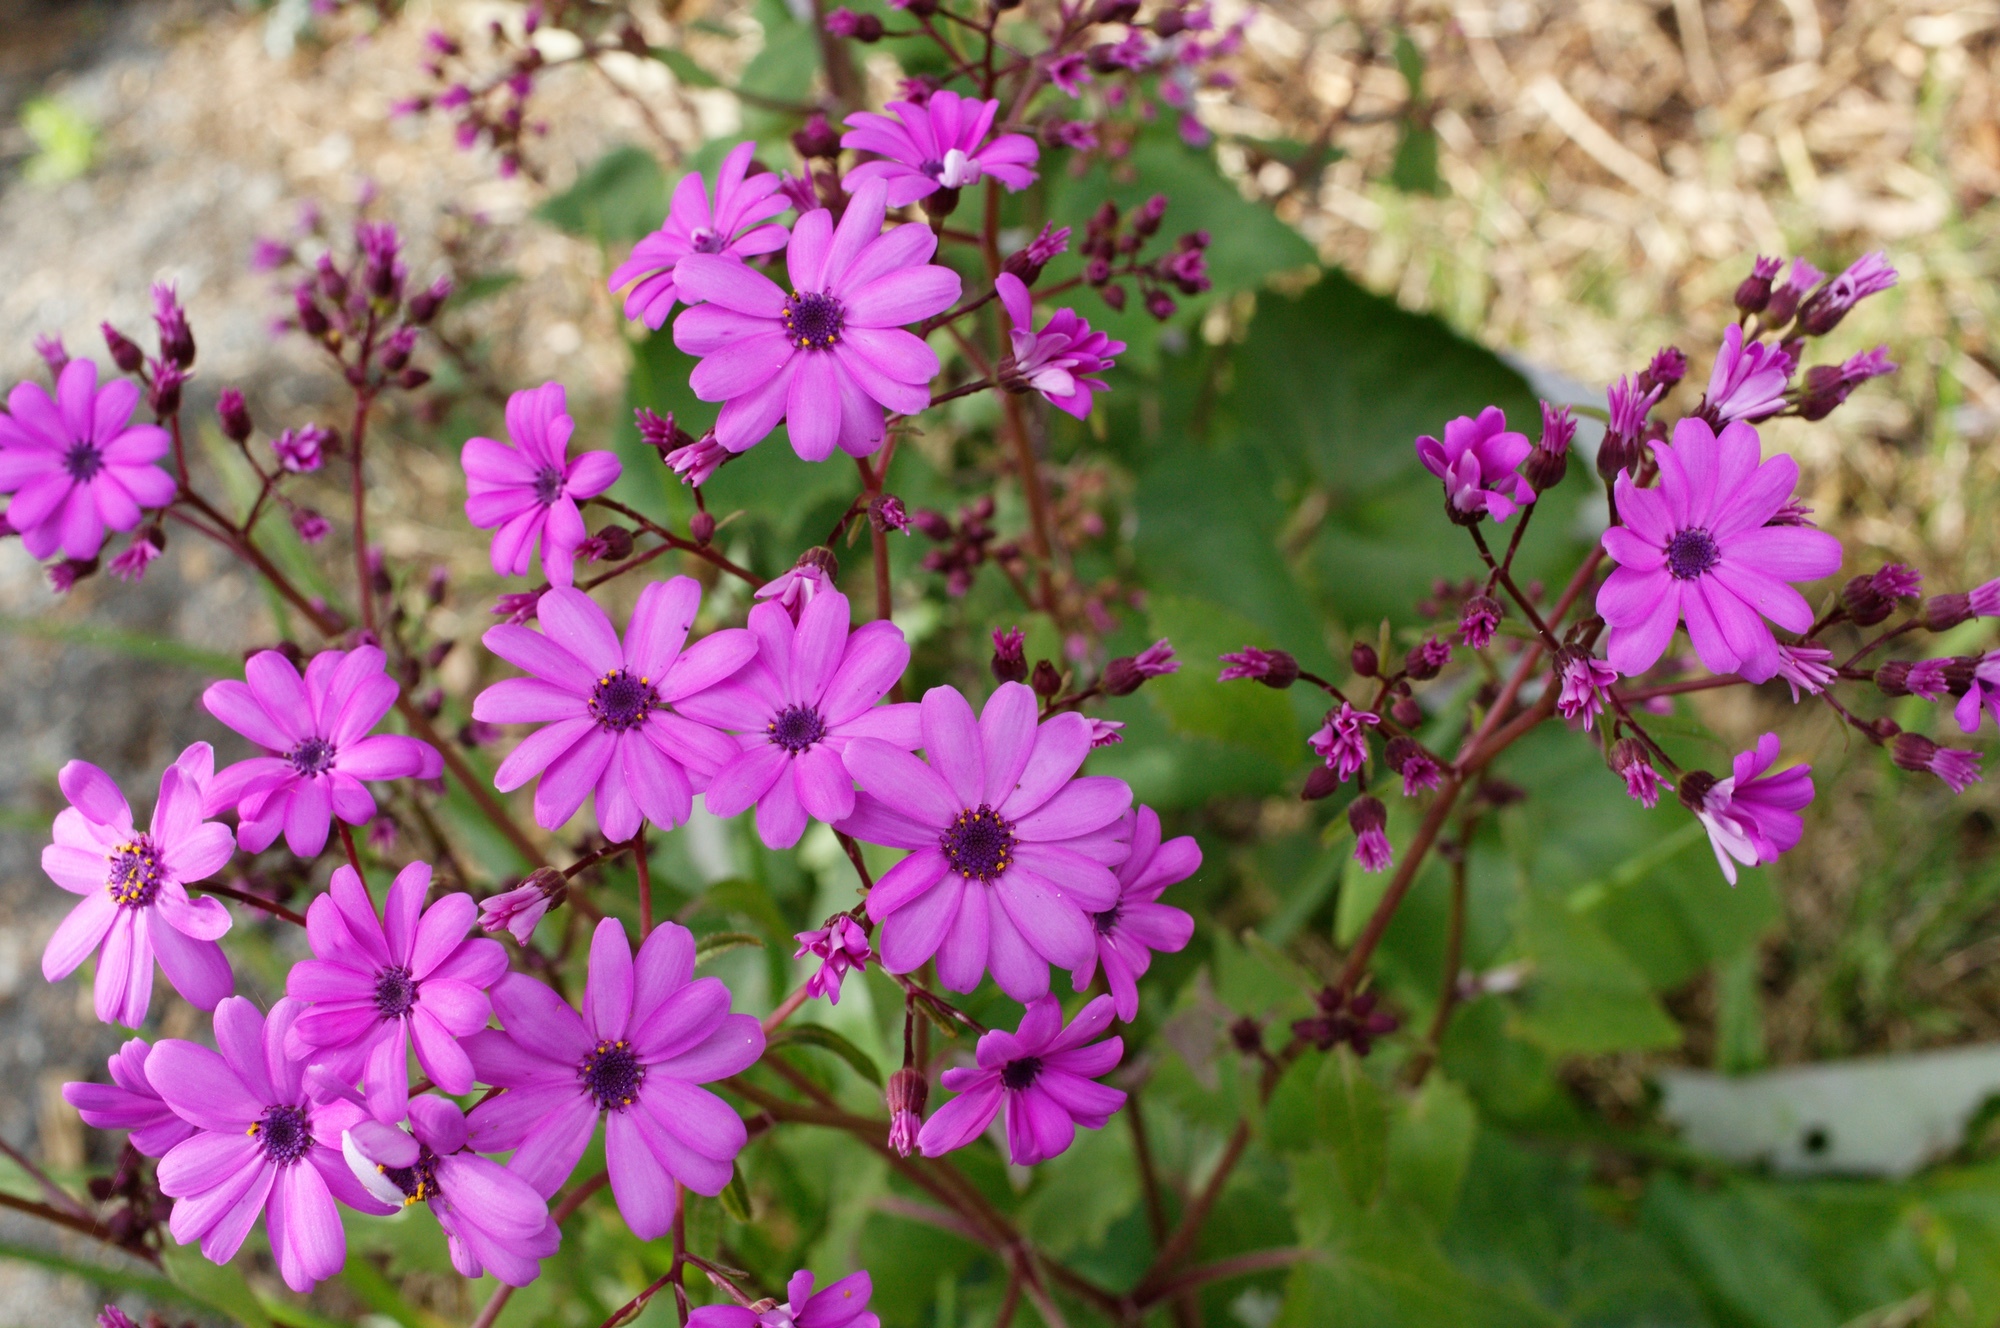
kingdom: Plantae
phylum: Tracheophyta
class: Magnoliopsida
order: Asterales
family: Asteraceae
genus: Pericallis
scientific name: Pericallis hybrida
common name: Cineraria
